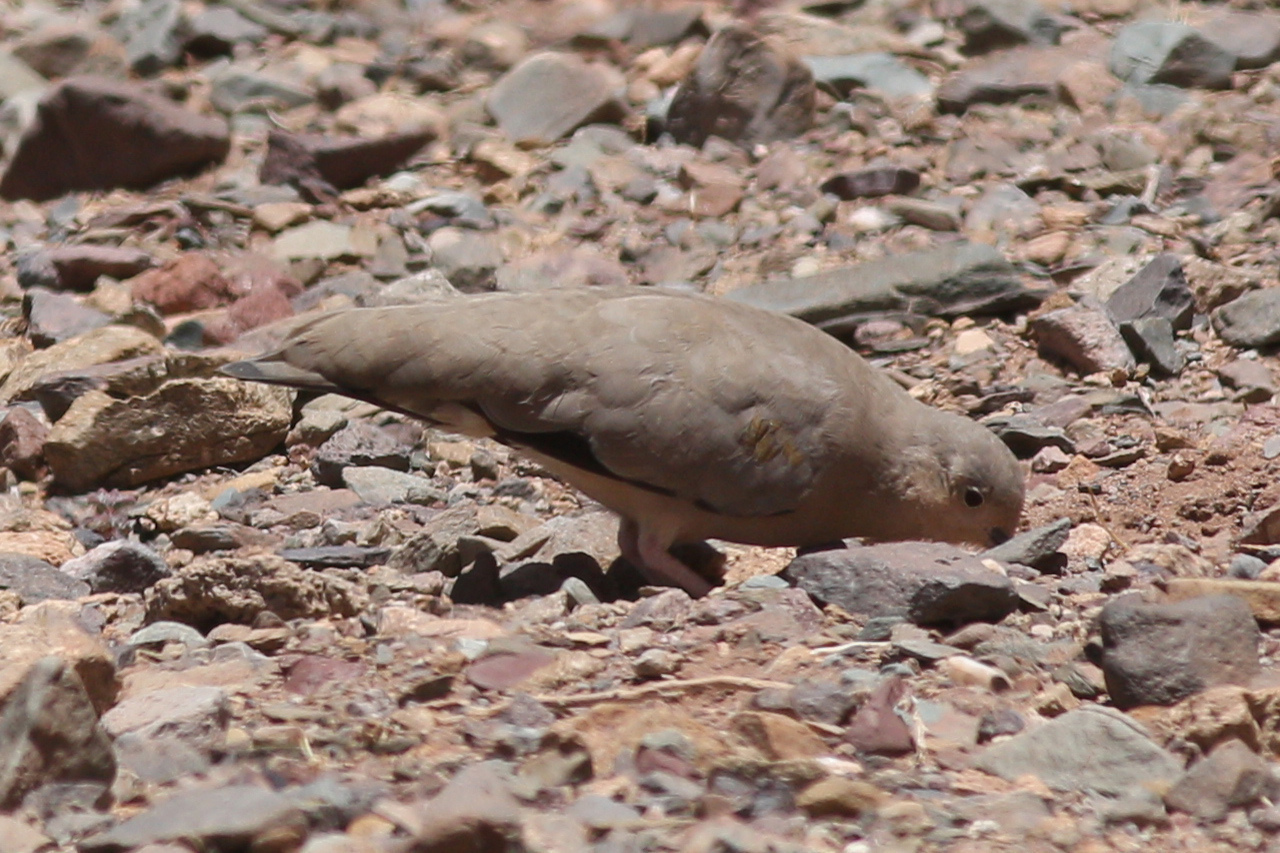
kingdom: Animalia
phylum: Chordata
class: Aves
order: Columbiformes
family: Columbidae
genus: Metriopelia
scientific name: Metriopelia aymara
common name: Golden-spotted ground dove
